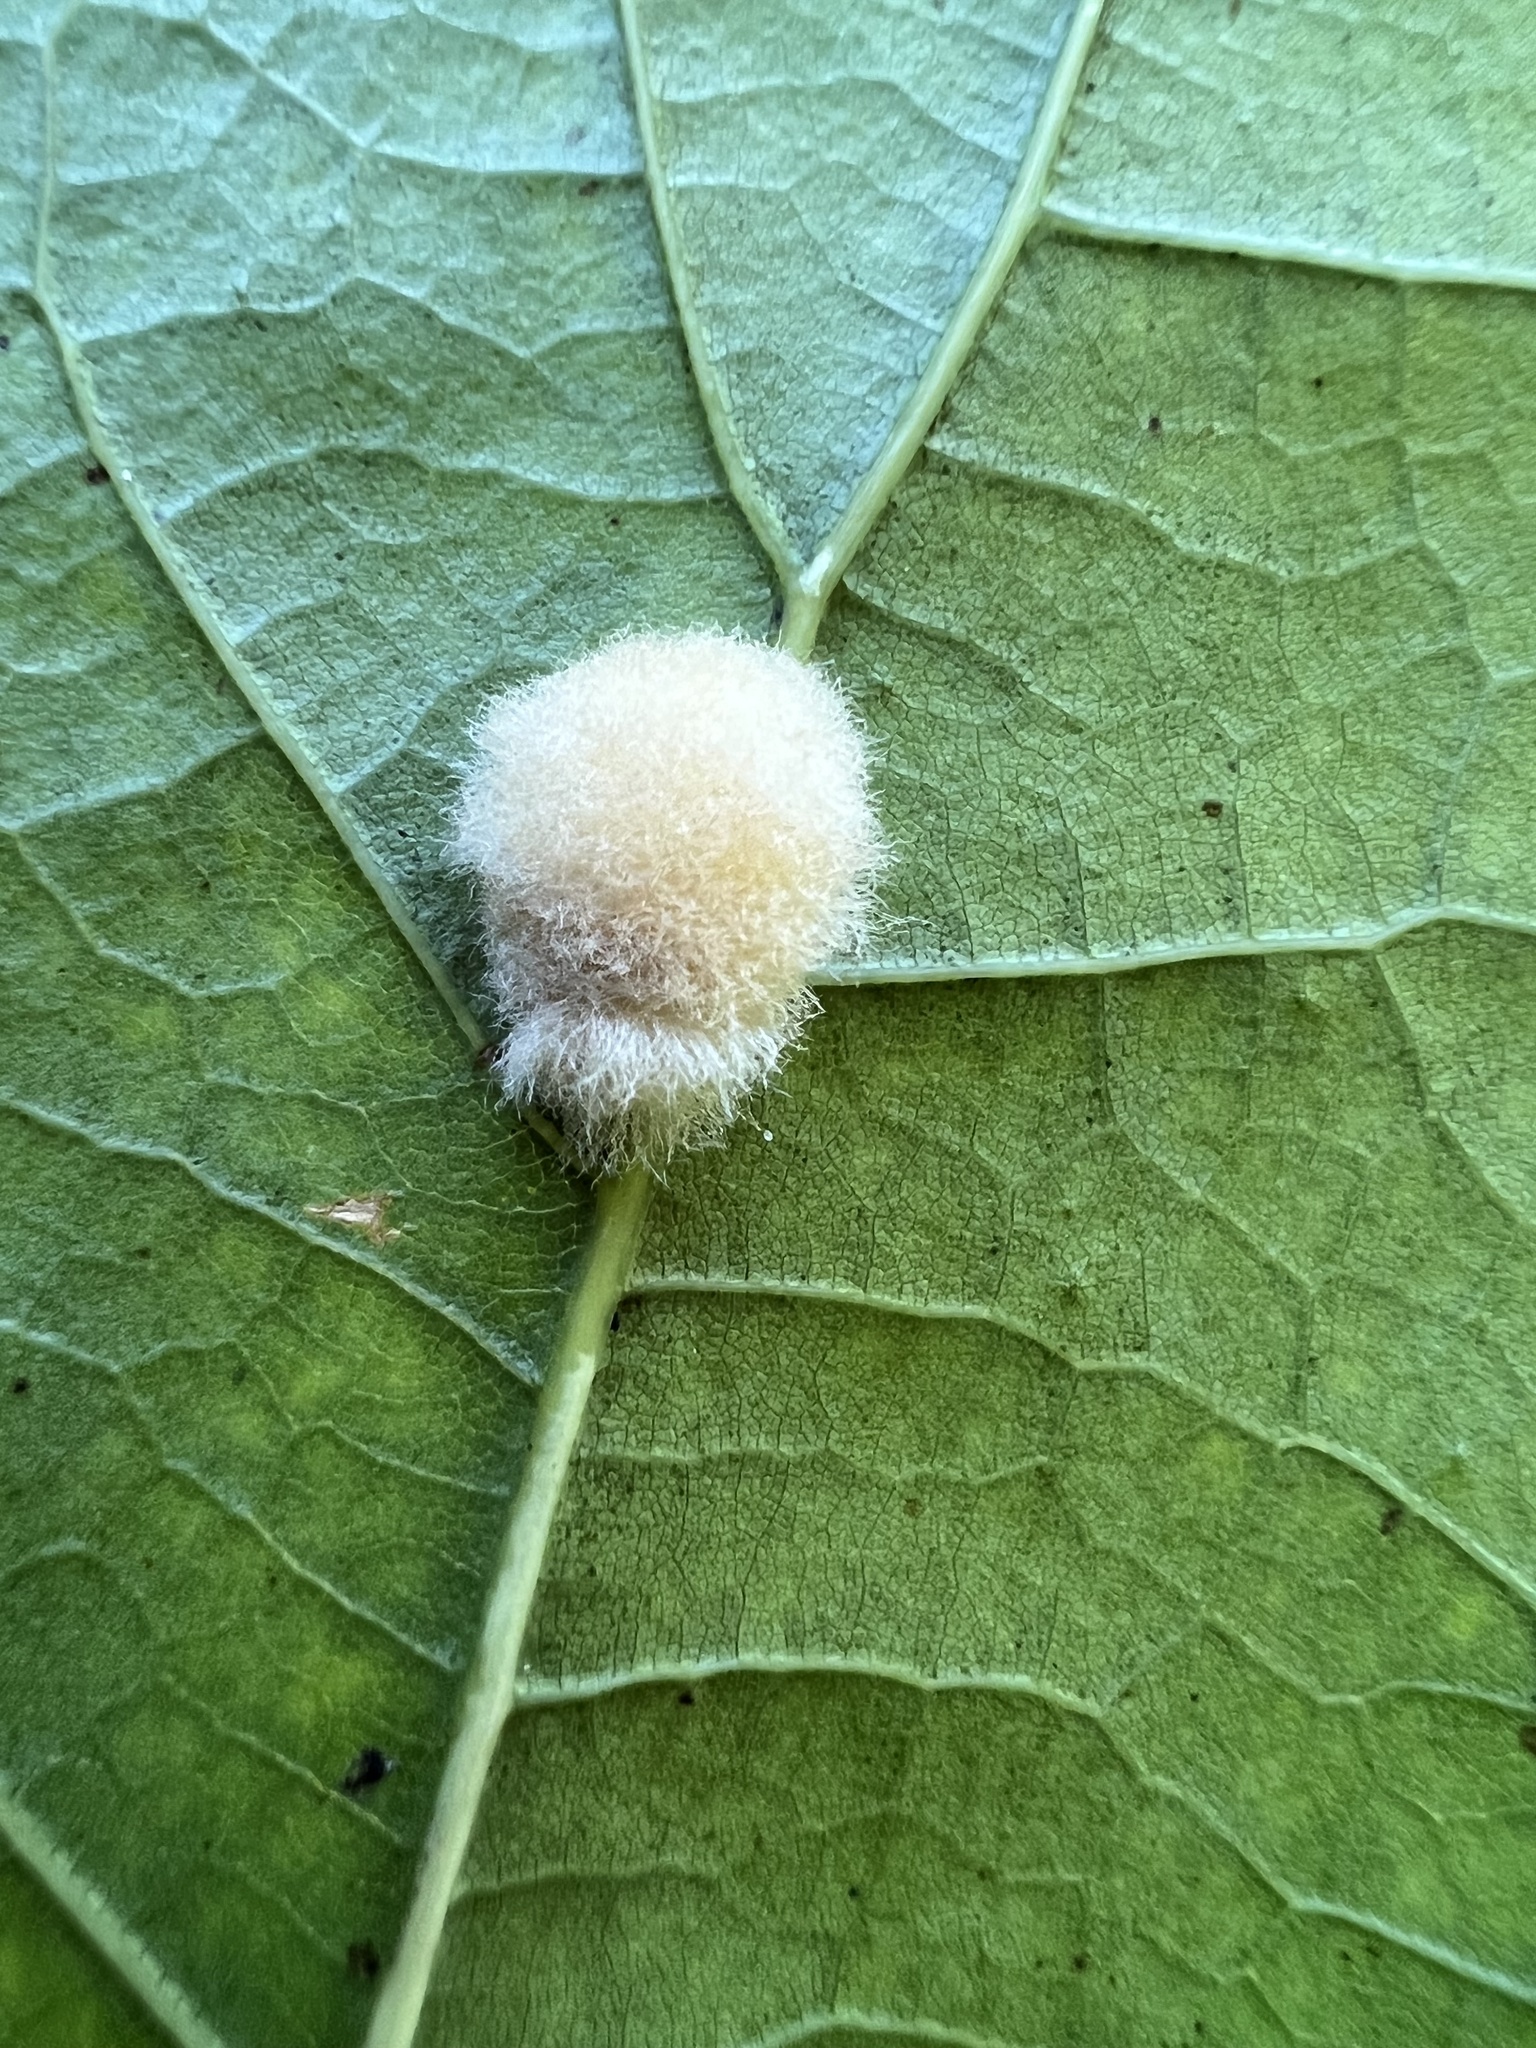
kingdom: Animalia
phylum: Arthropoda
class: Insecta
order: Hymenoptera
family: Cynipidae
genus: Callirhytis
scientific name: Callirhytis
